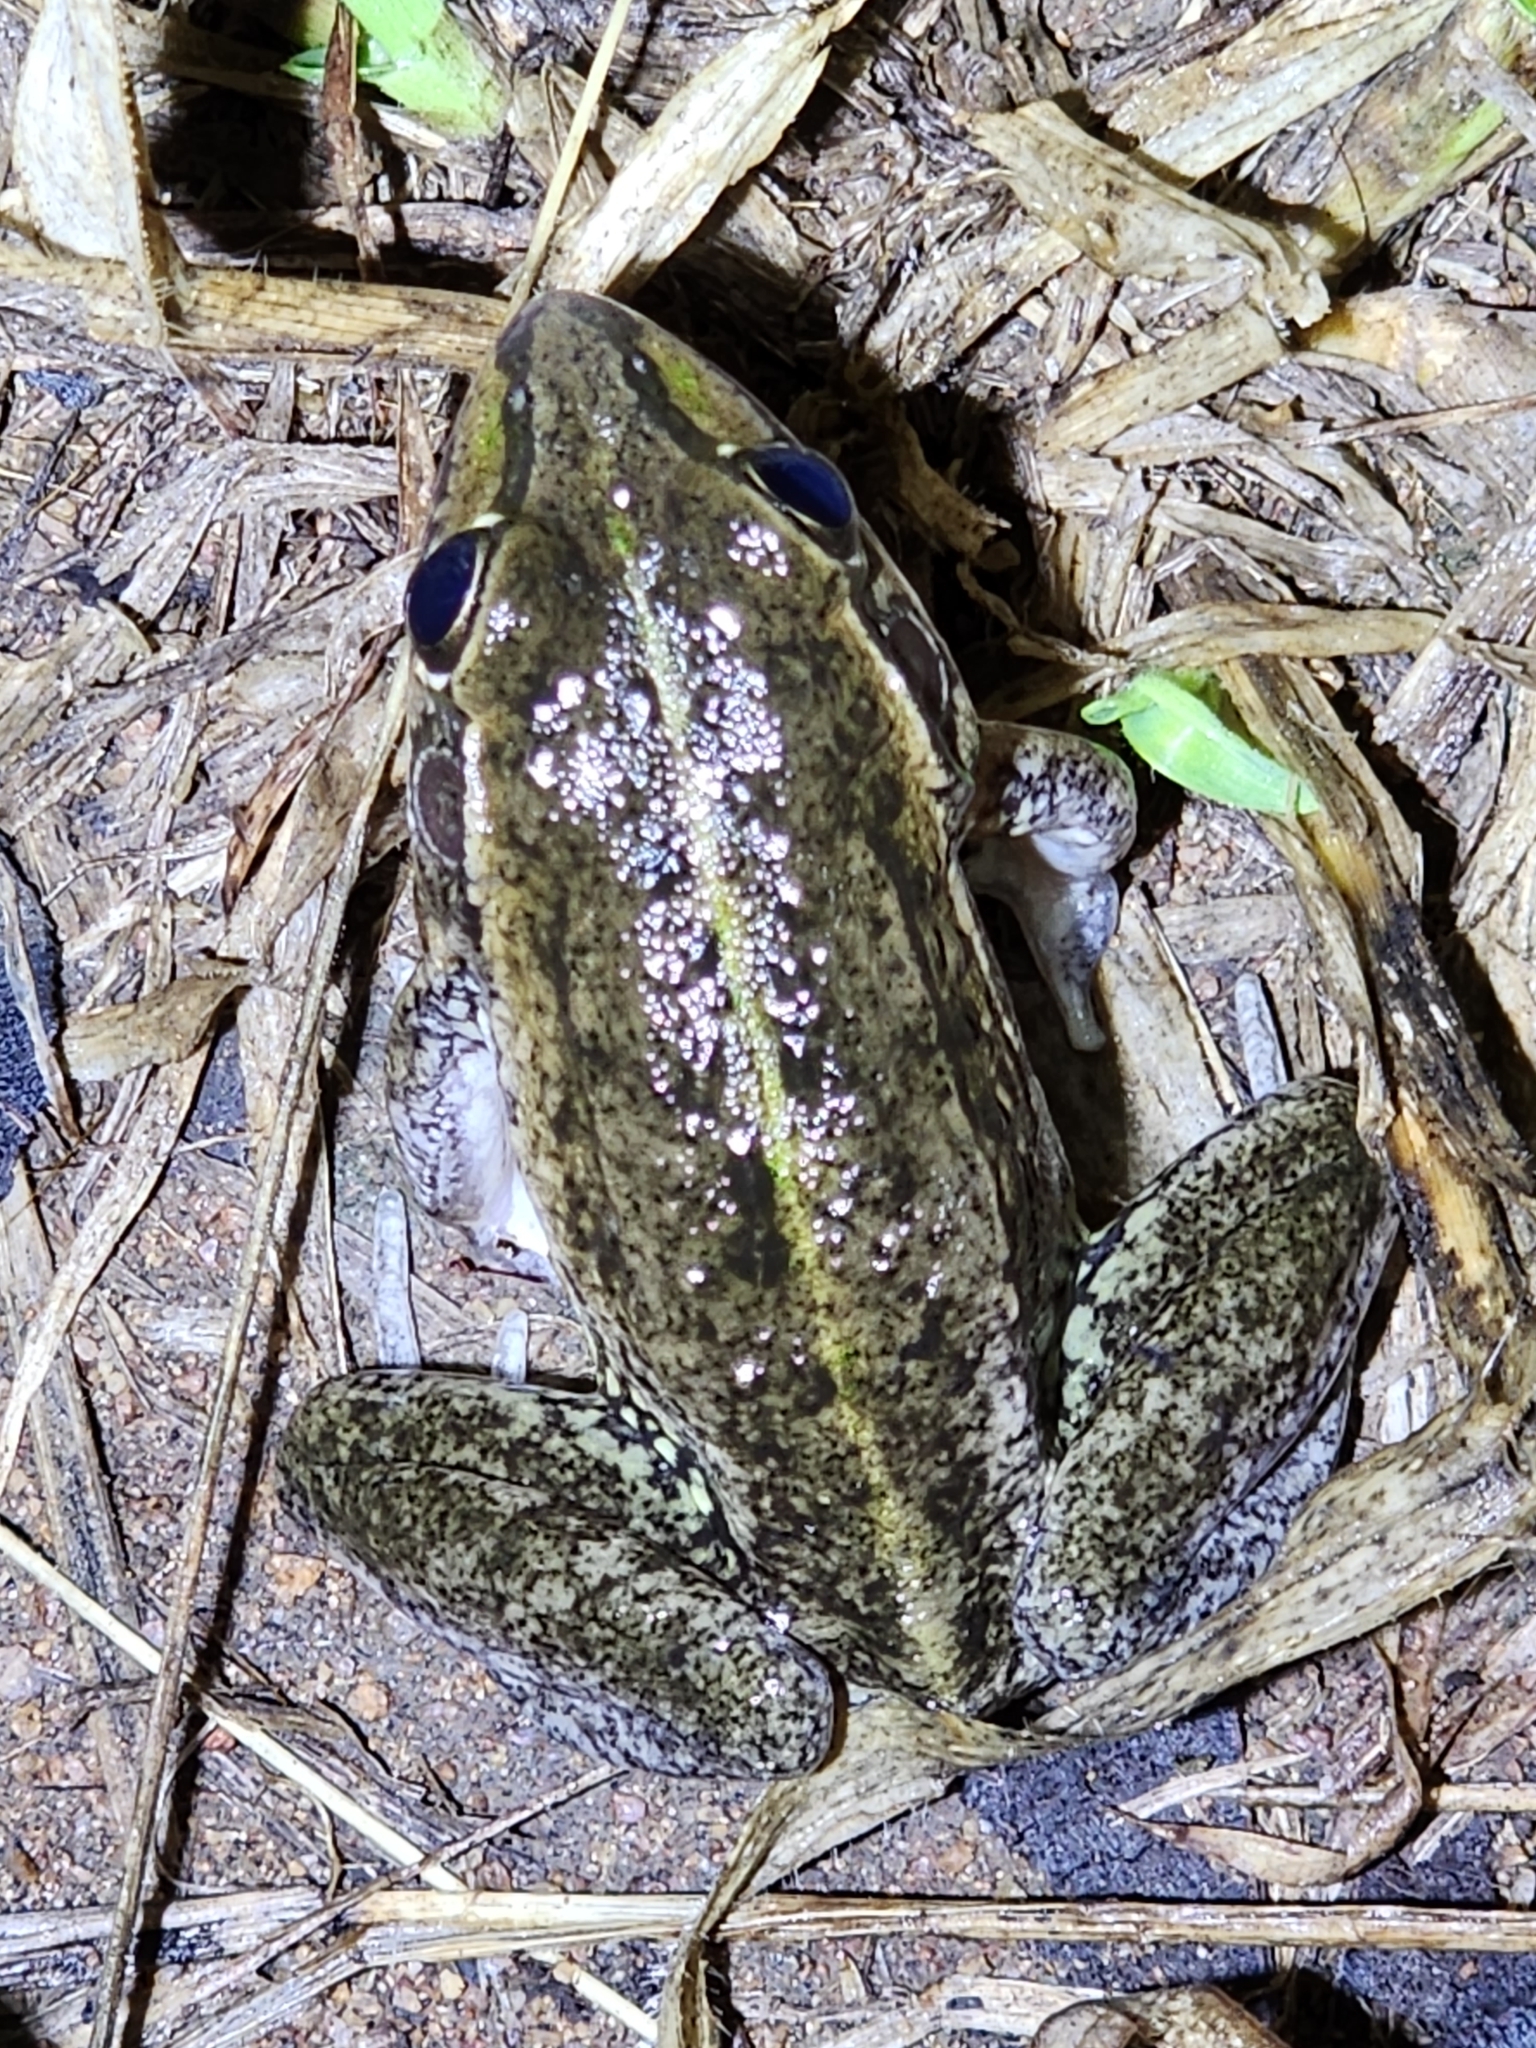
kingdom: Animalia
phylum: Chordata
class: Amphibia
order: Anura
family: Pelodryadidae
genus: Ranoidea
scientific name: Ranoidea alboguttata
